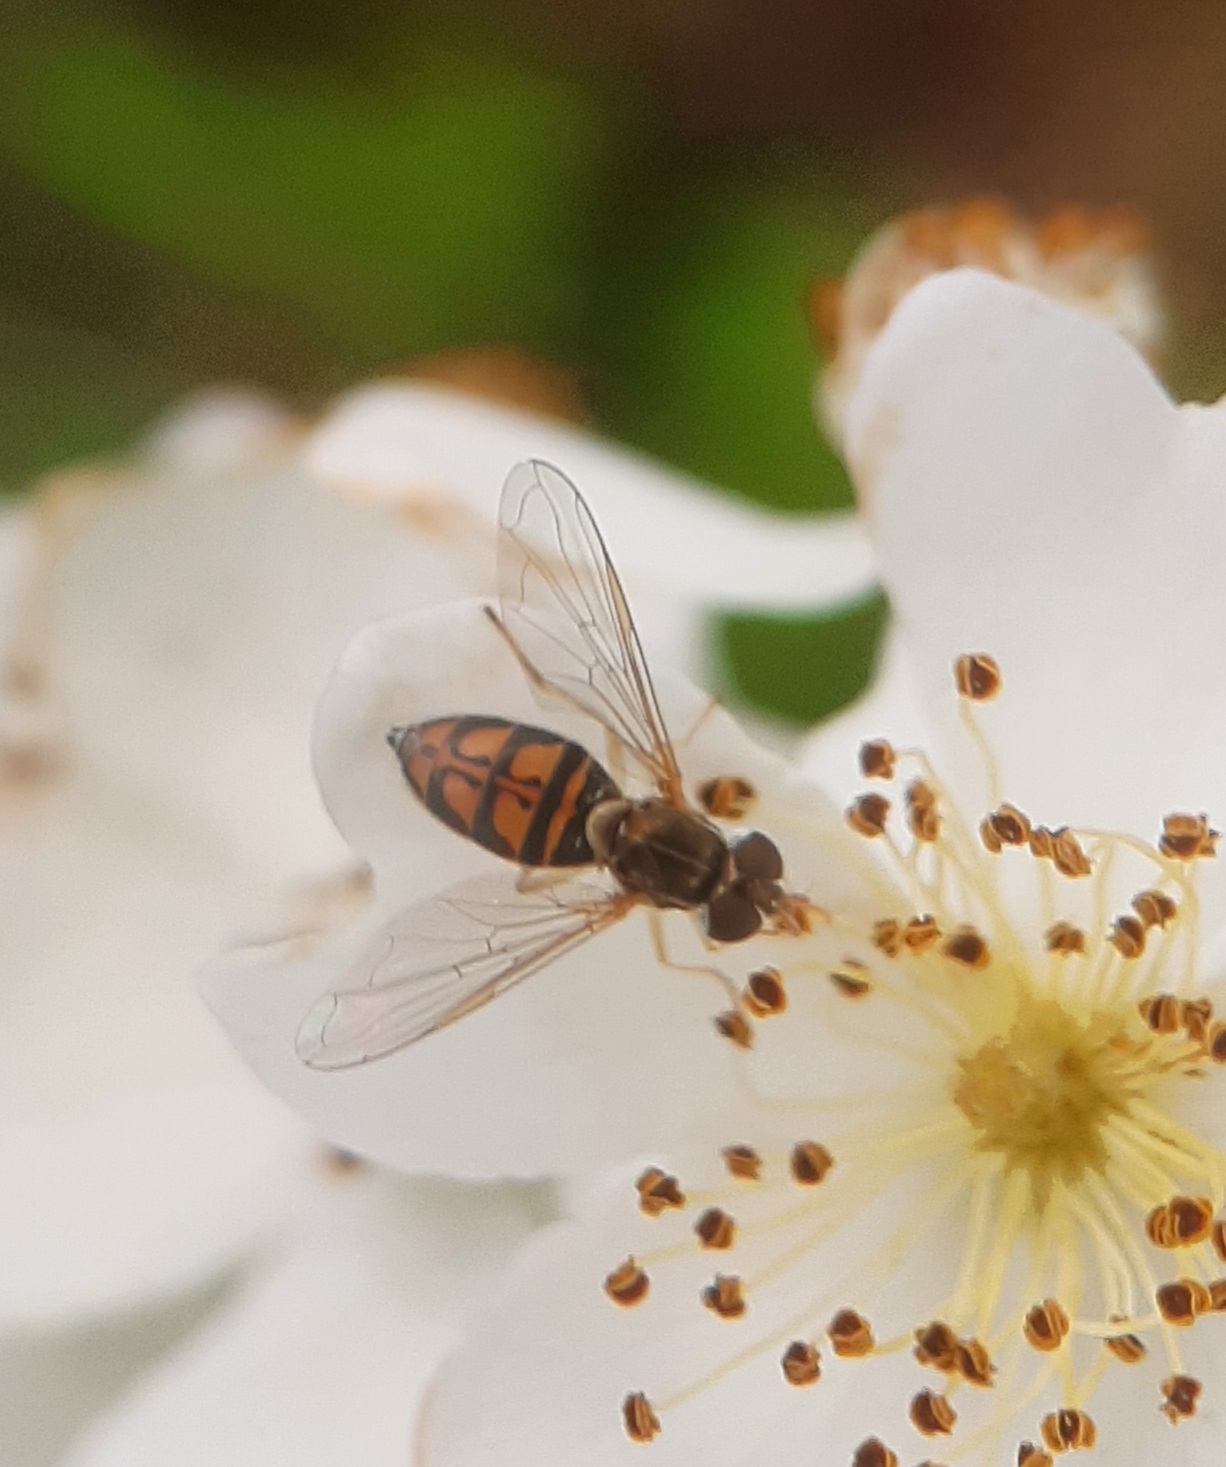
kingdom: Animalia
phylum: Arthropoda
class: Insecta
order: Diptera
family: Syrphidae
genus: Toxomerus
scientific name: Toxomerus marginatus
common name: Syrphid fly
